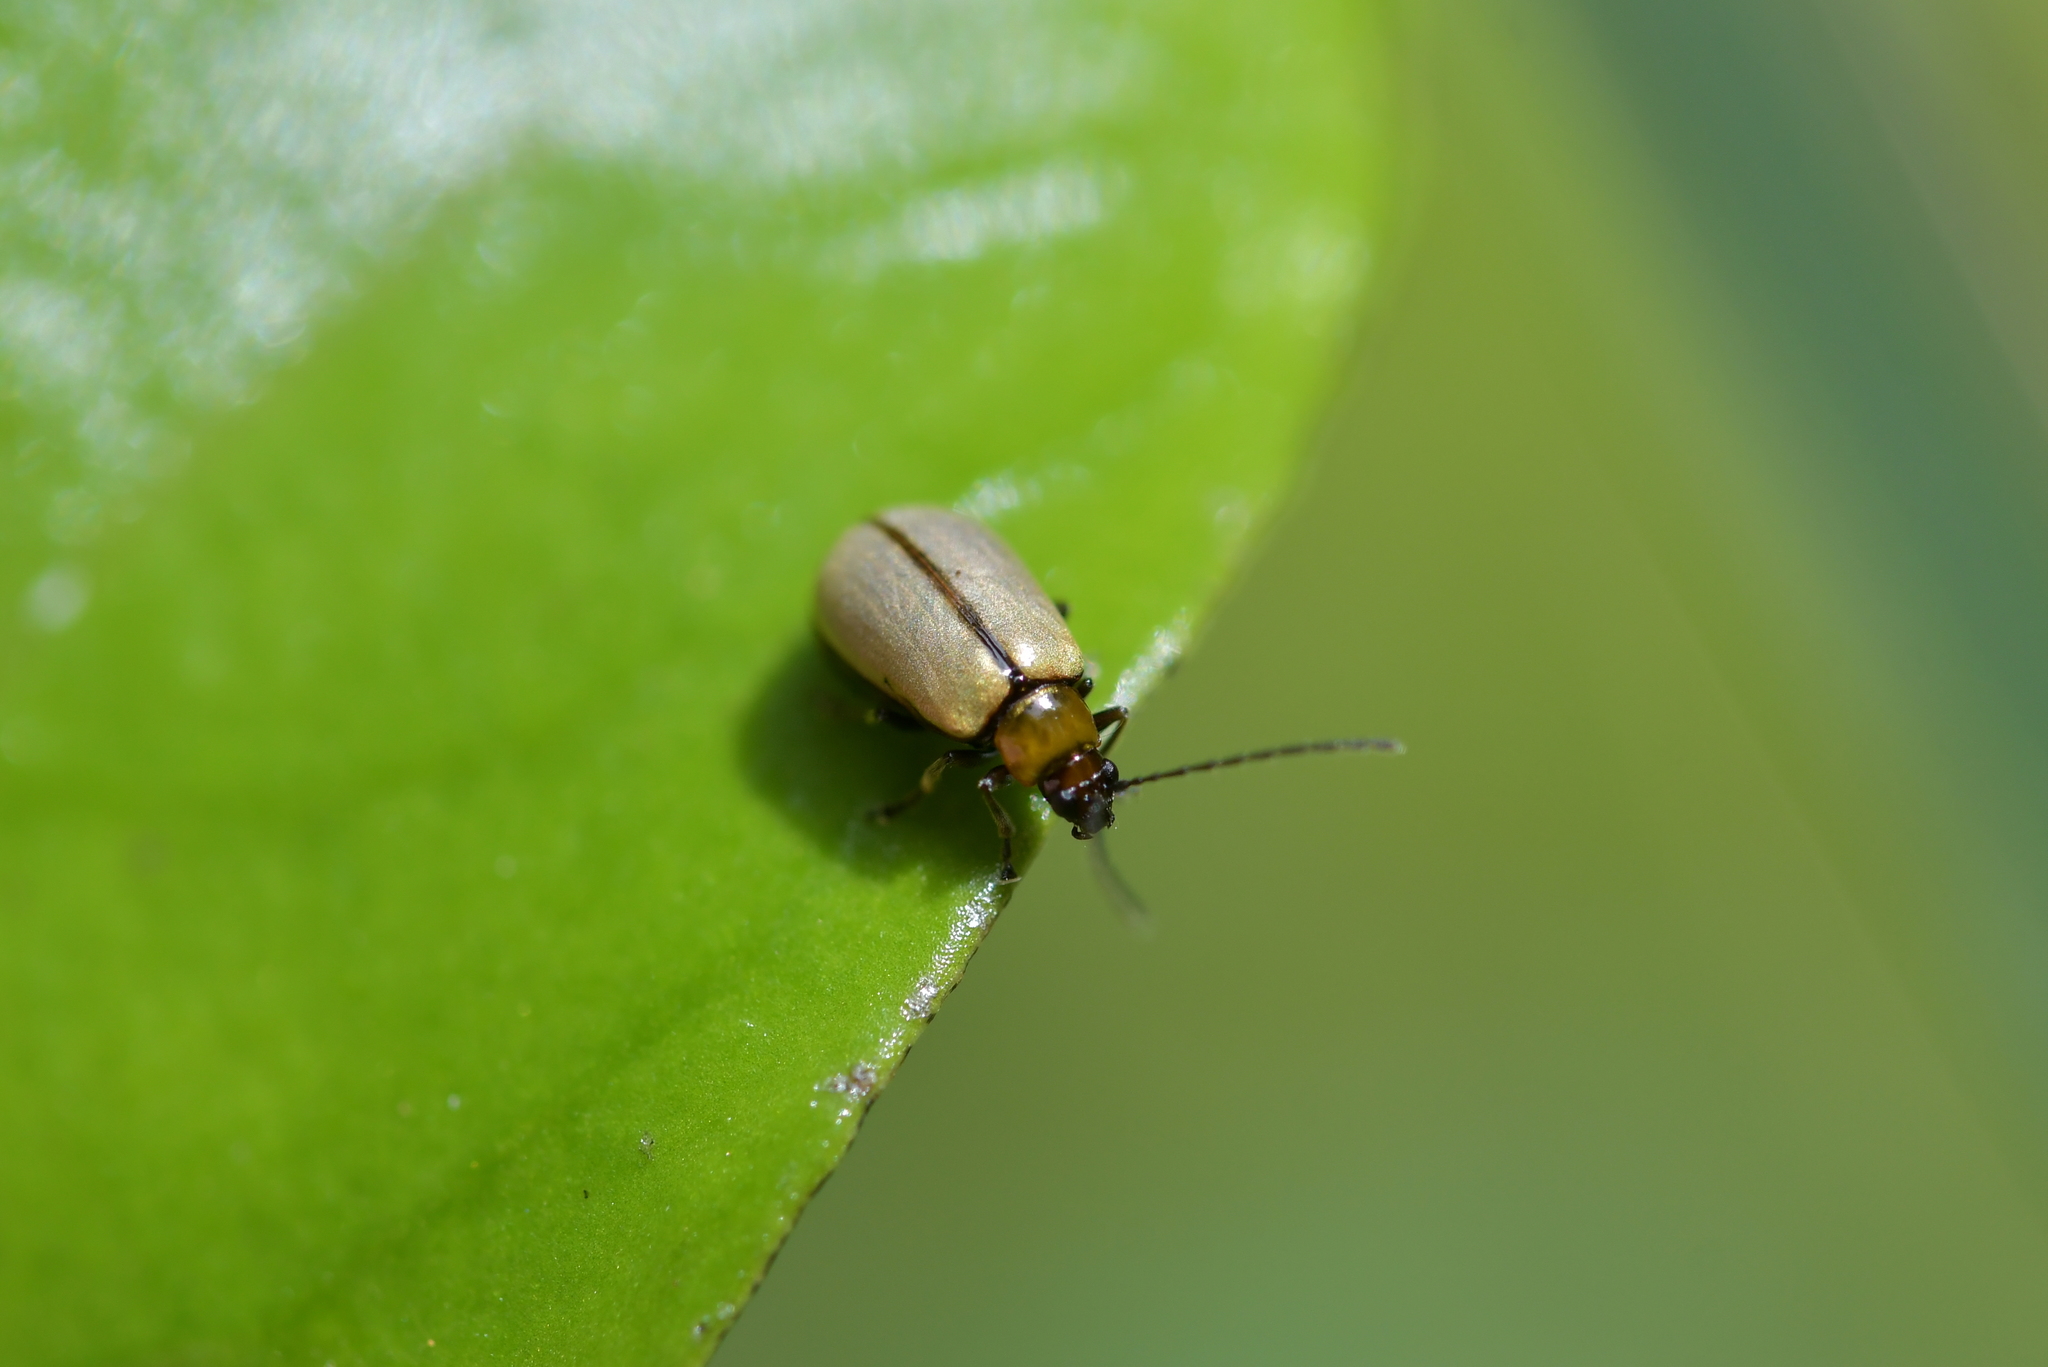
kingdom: Animalia
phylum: Arthropoda
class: Insecta
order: Coleoptera
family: Chrysomelidae
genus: Adoxia
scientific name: Adoxia
